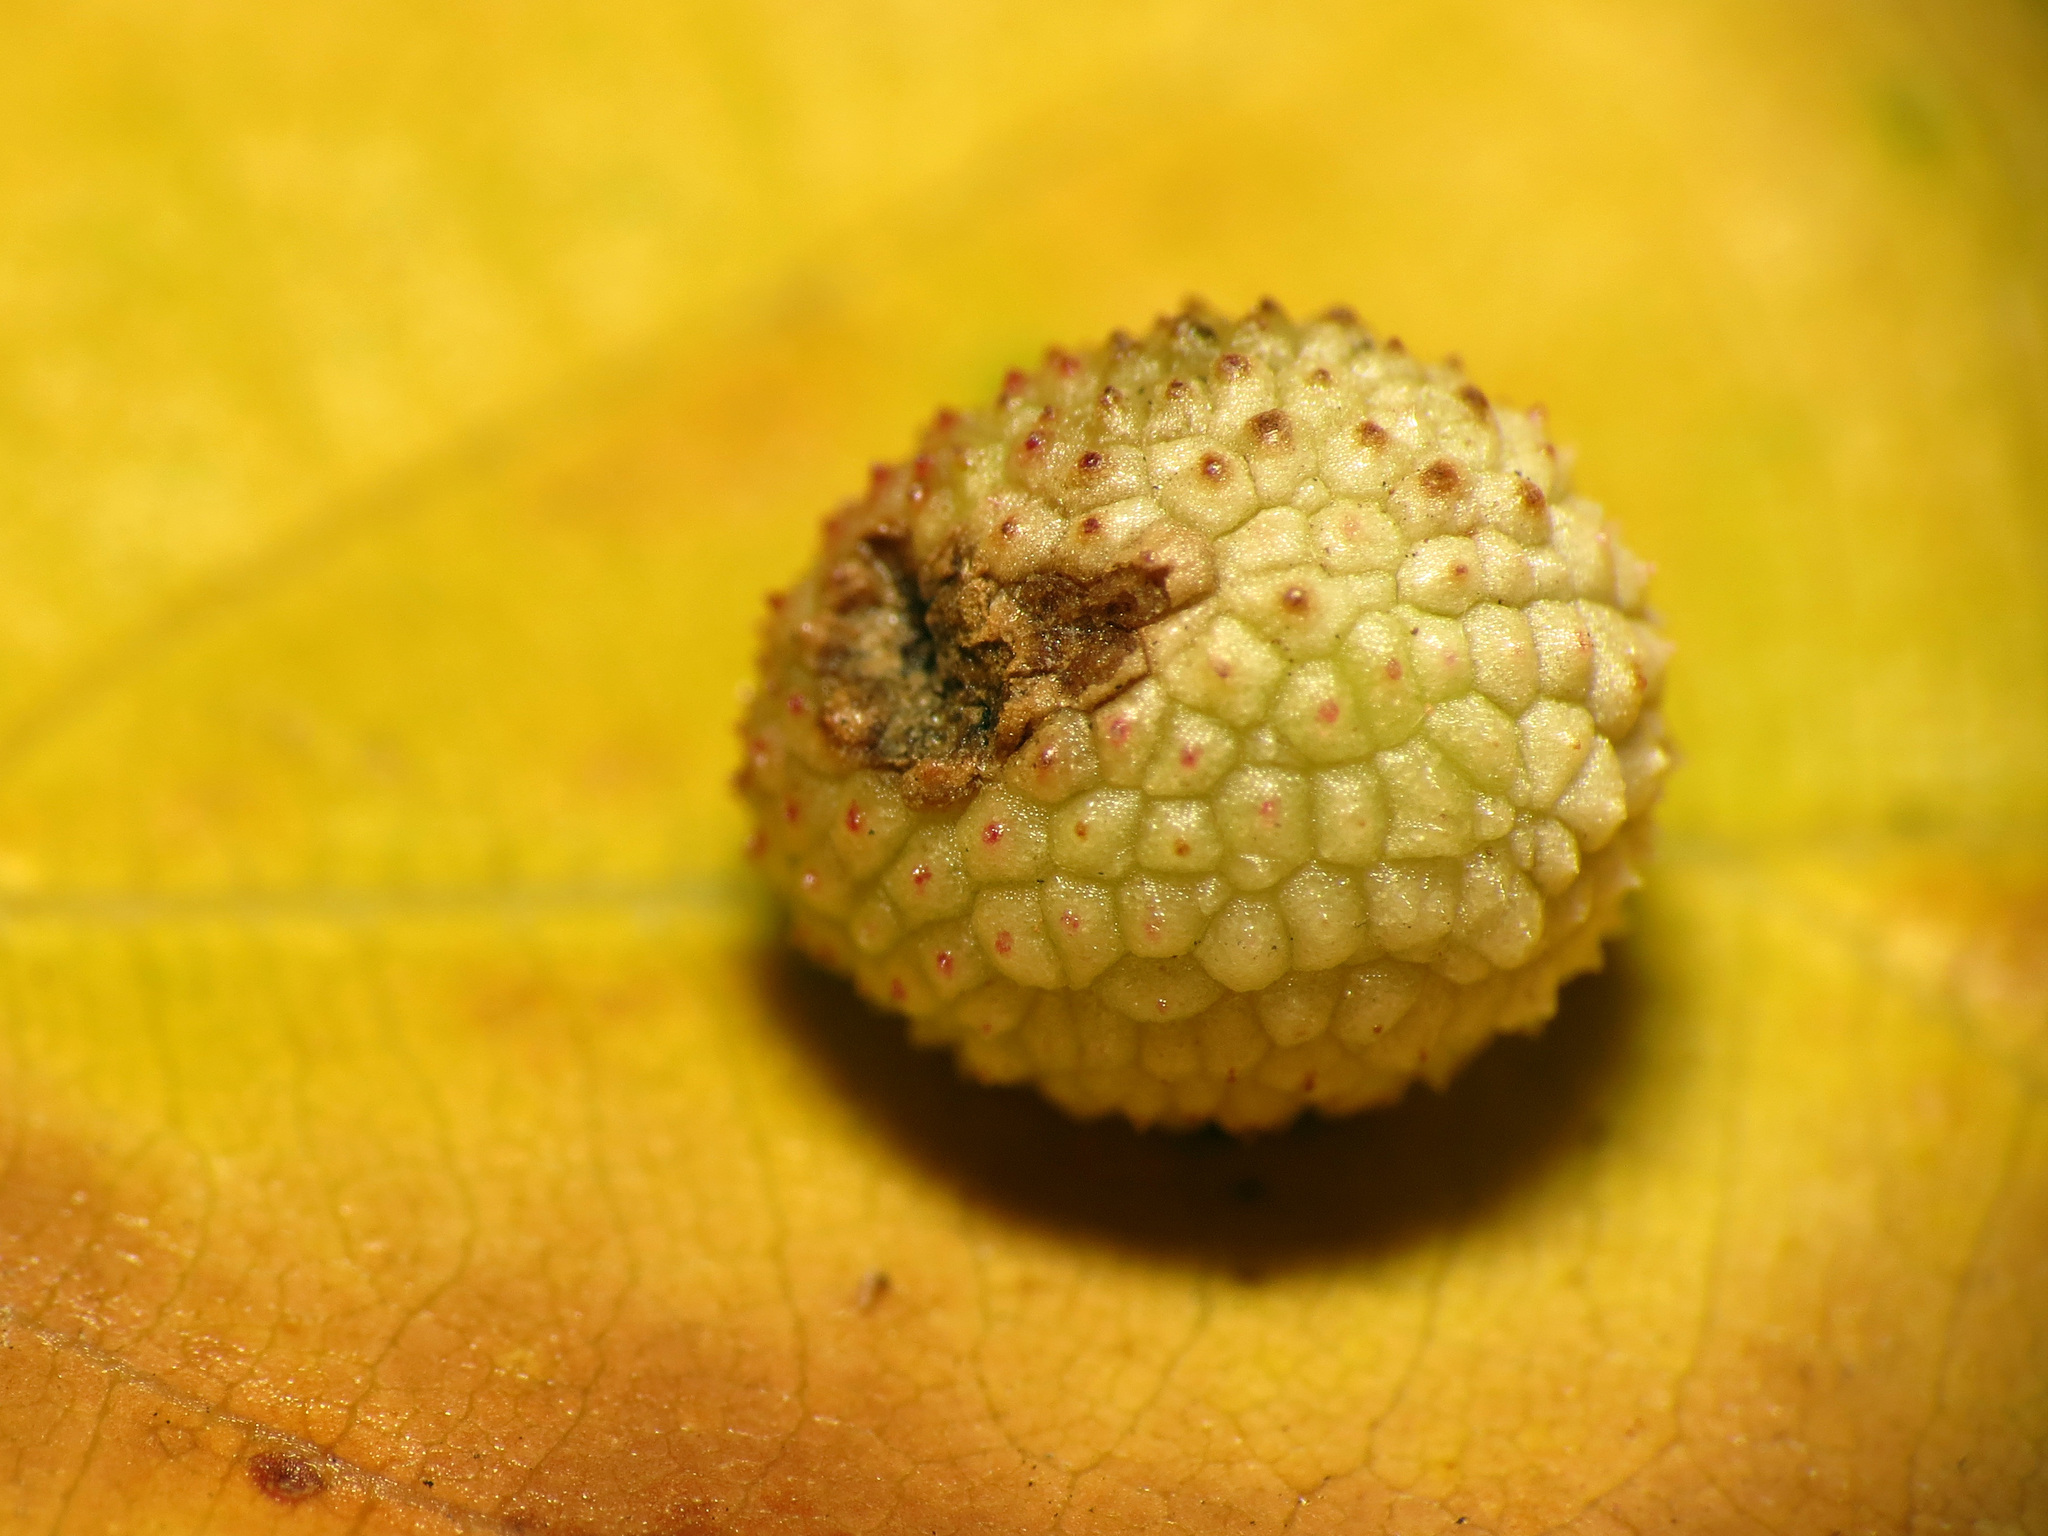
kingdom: Animalia
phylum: Arthropoda
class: Insecta
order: Hymenoptera
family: Cynipidae
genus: Acraspis
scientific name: Acraspis quercushirta
